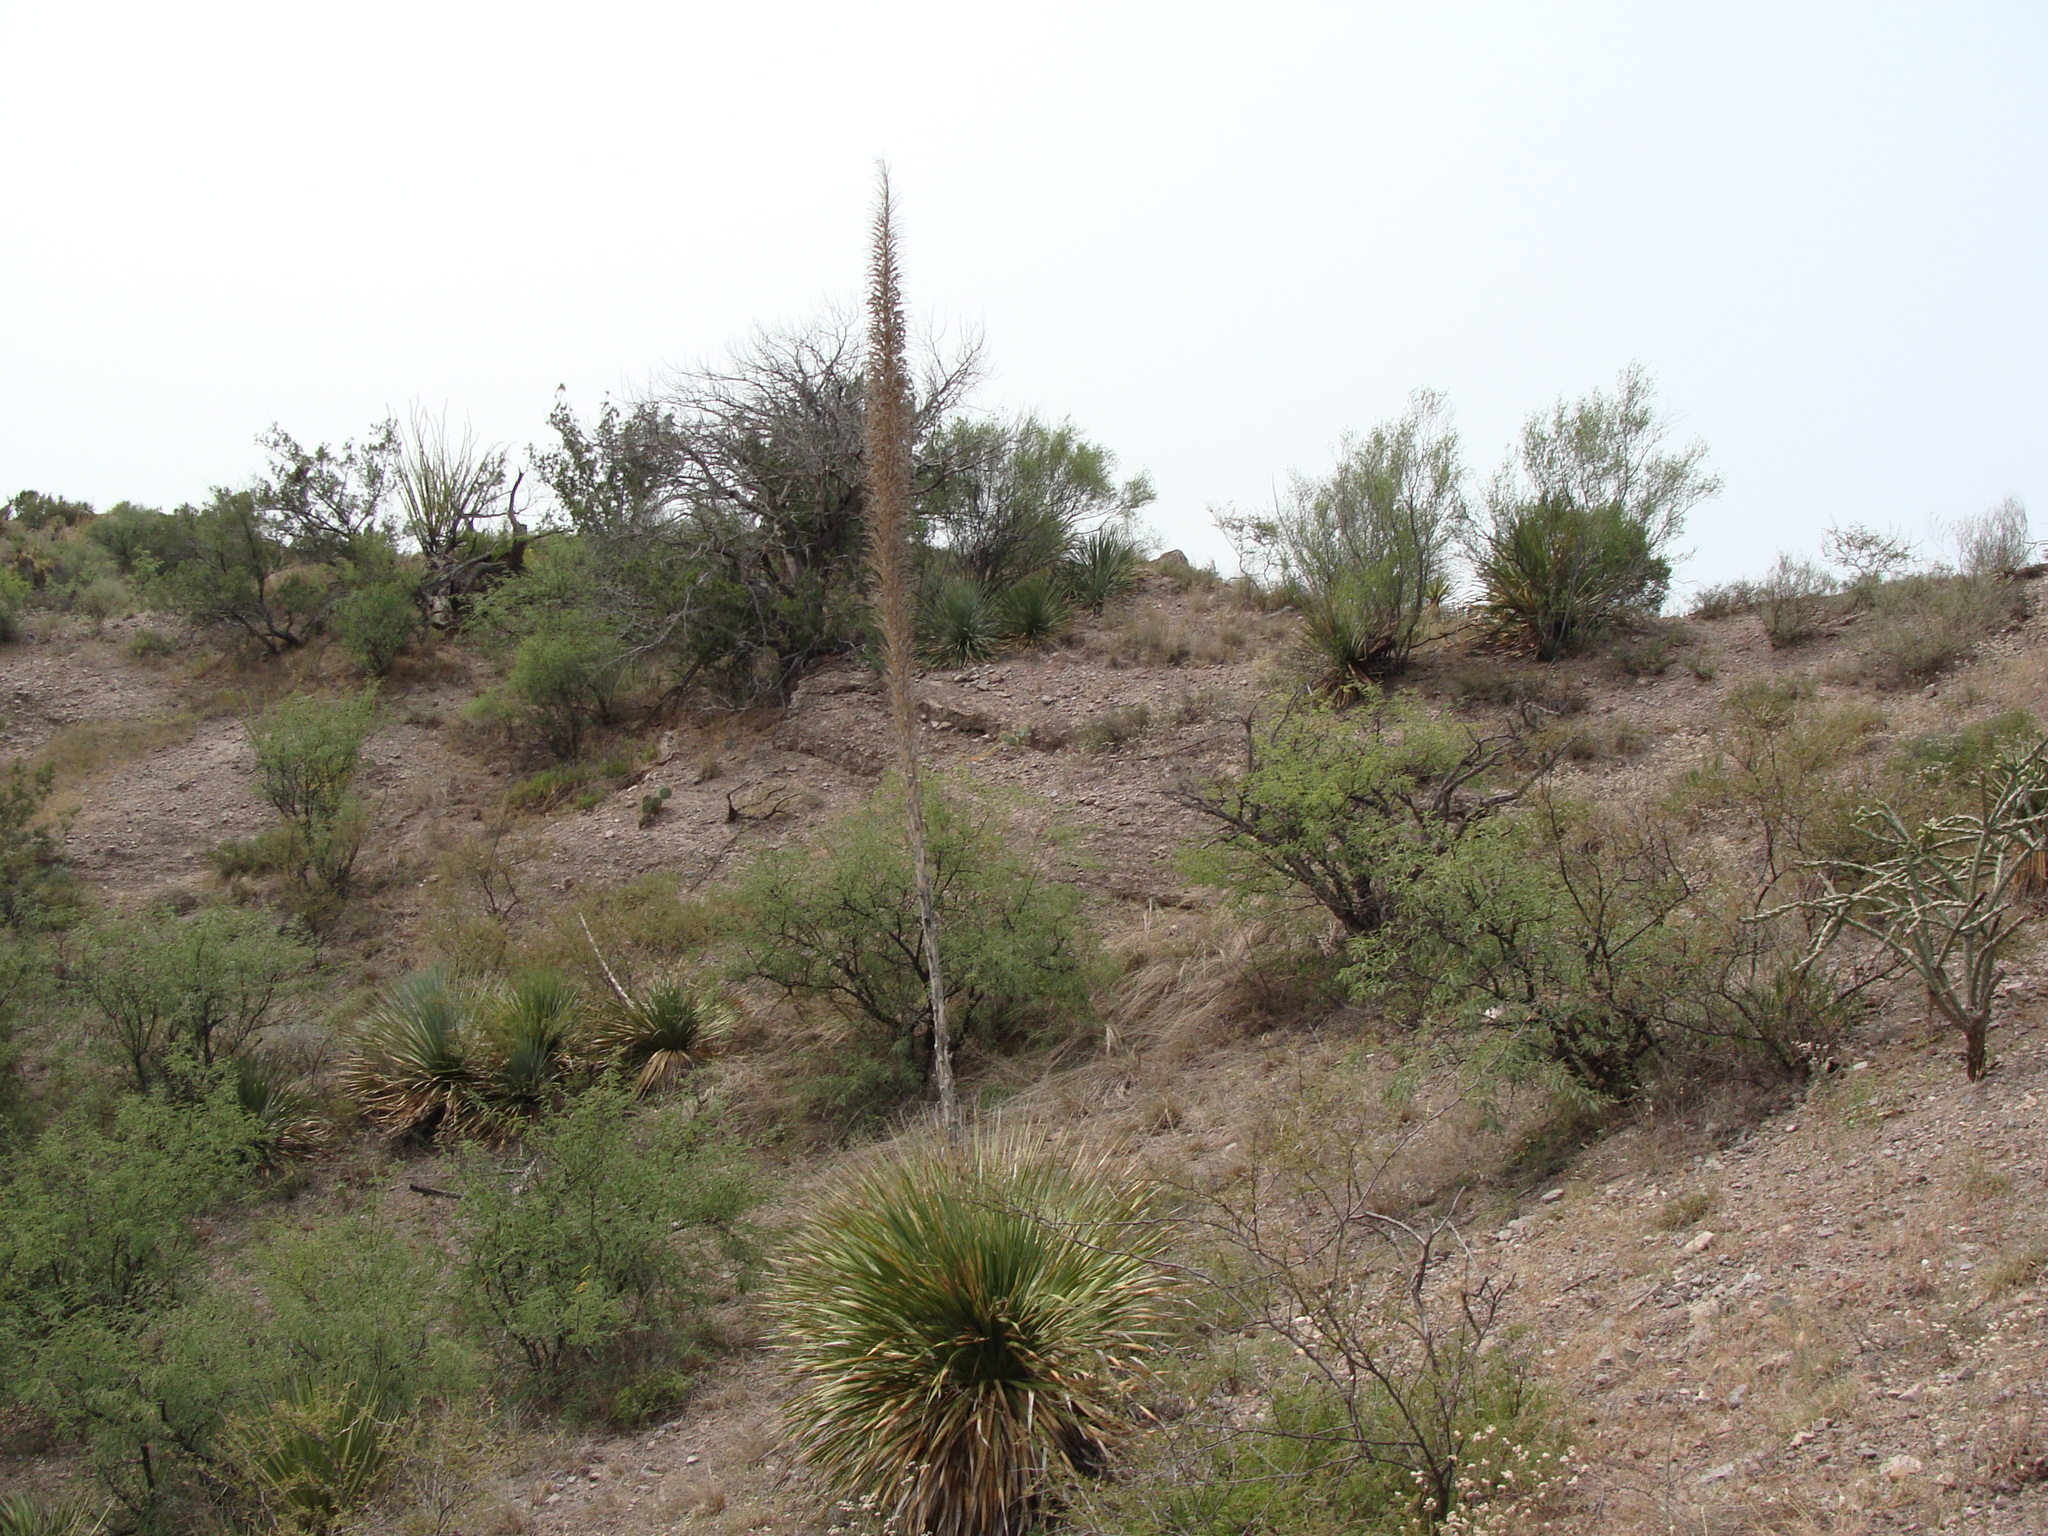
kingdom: Plantae
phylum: Tracheophyta
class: Liliopsida
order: Asparagales
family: Asparagaceae
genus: Dasylirion
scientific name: Dasylirion wheeleri
